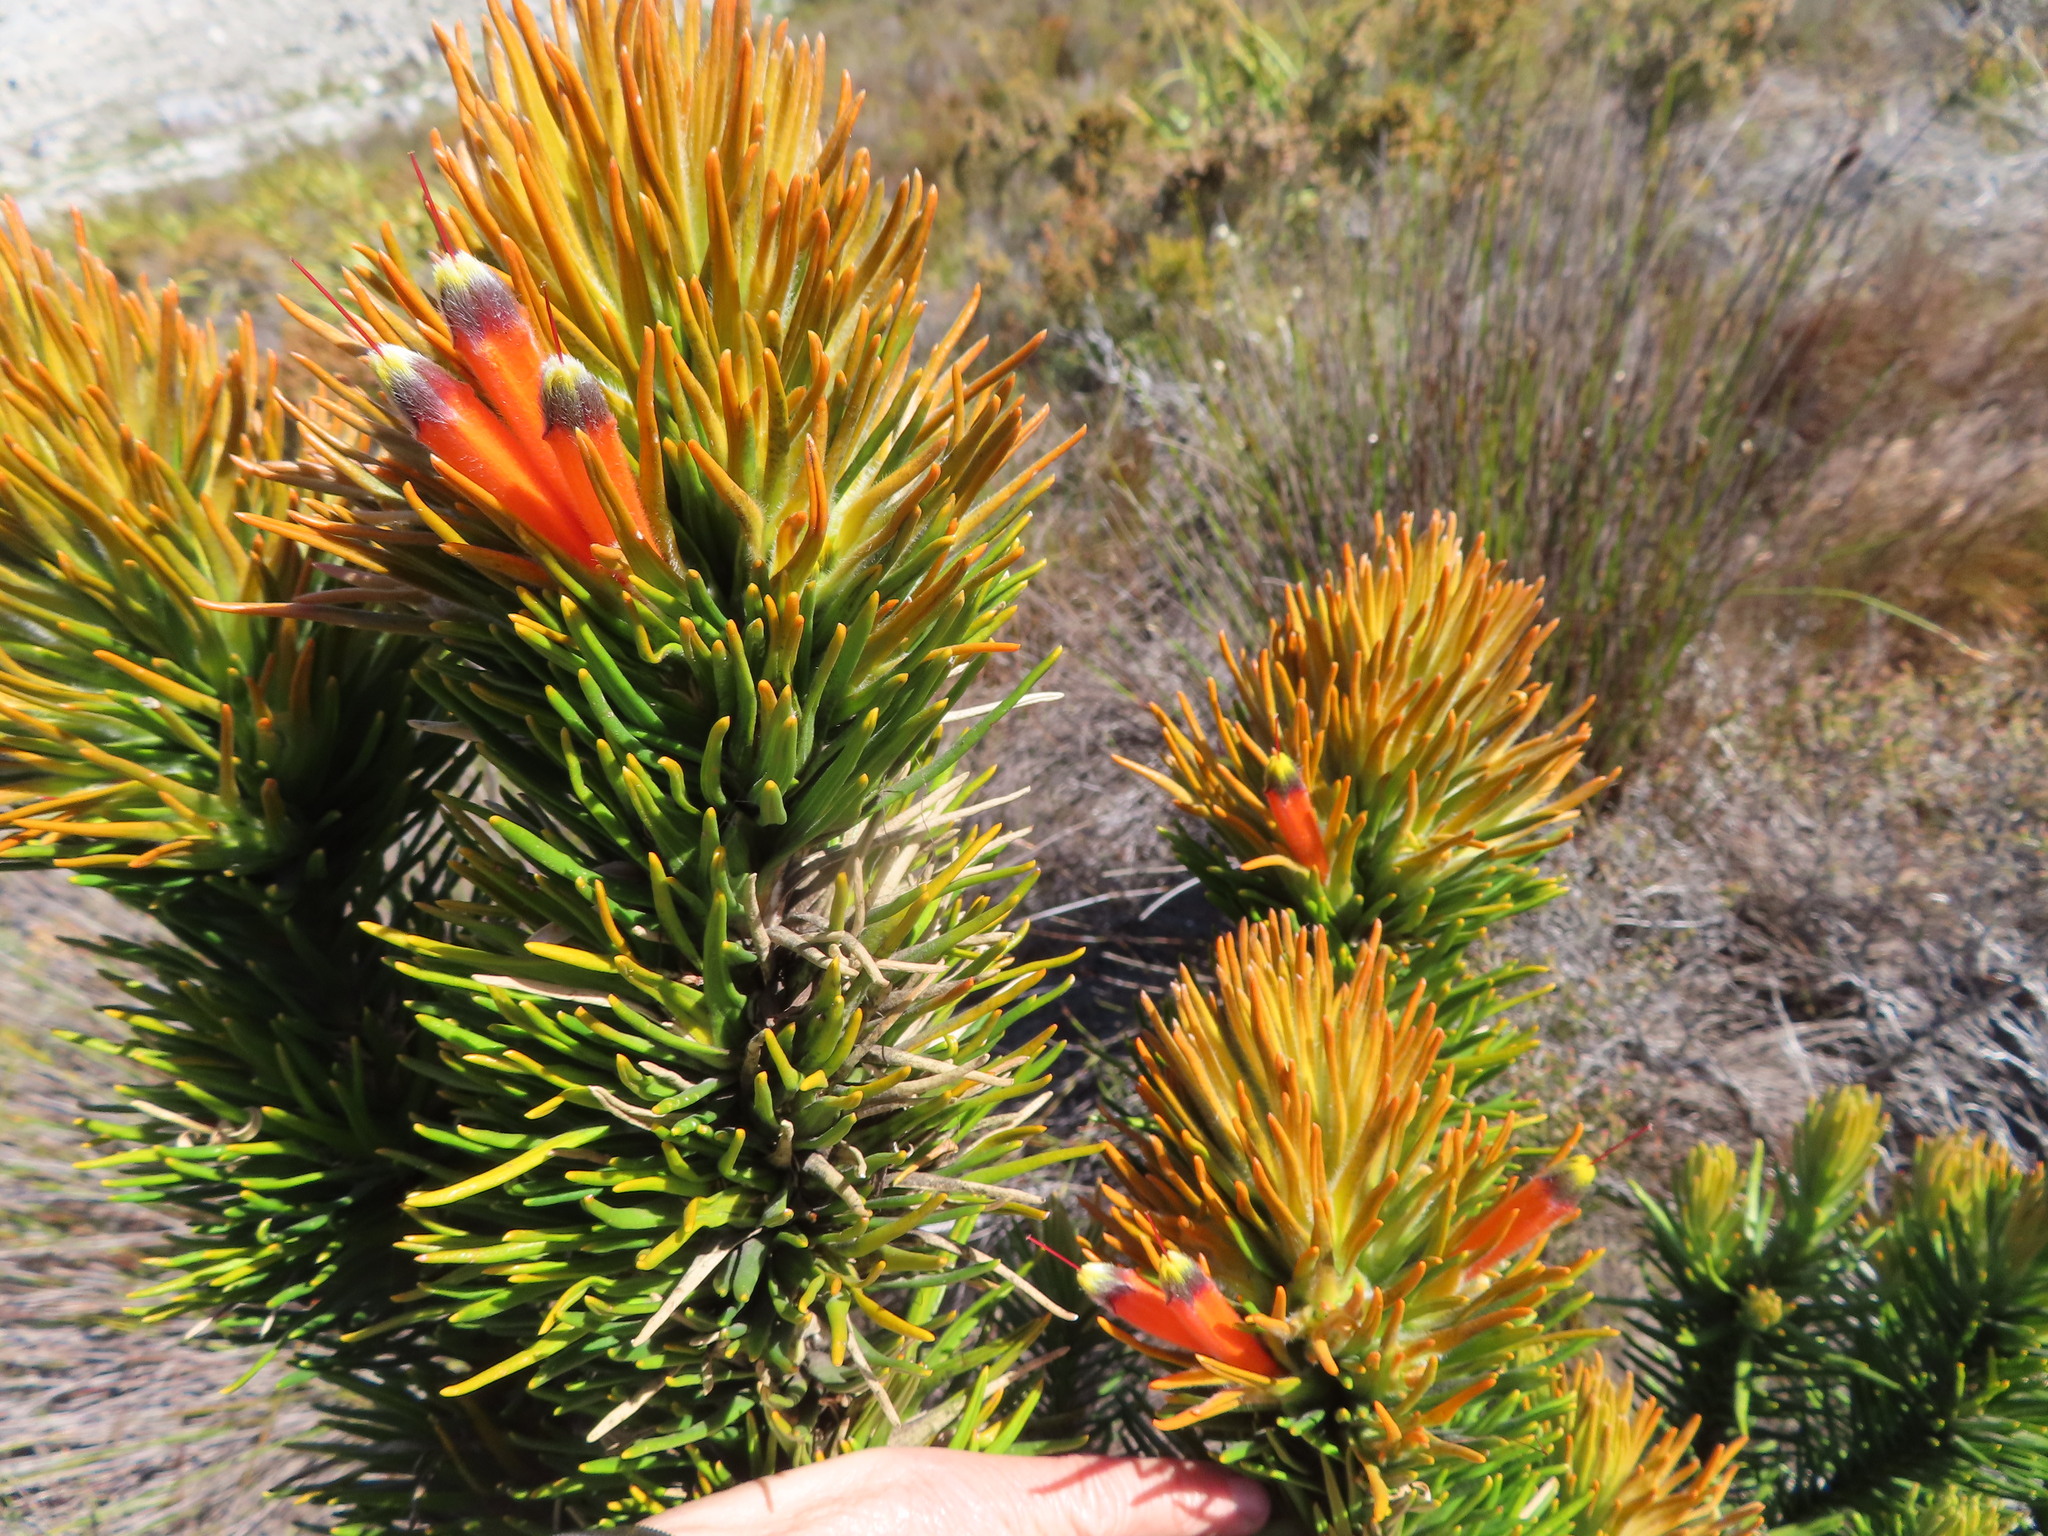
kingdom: Plantae
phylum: Tracheophyta
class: Magnoliopsida
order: Lamiales
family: Stilbaceae
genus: Retzia
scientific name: Retzia capensis
